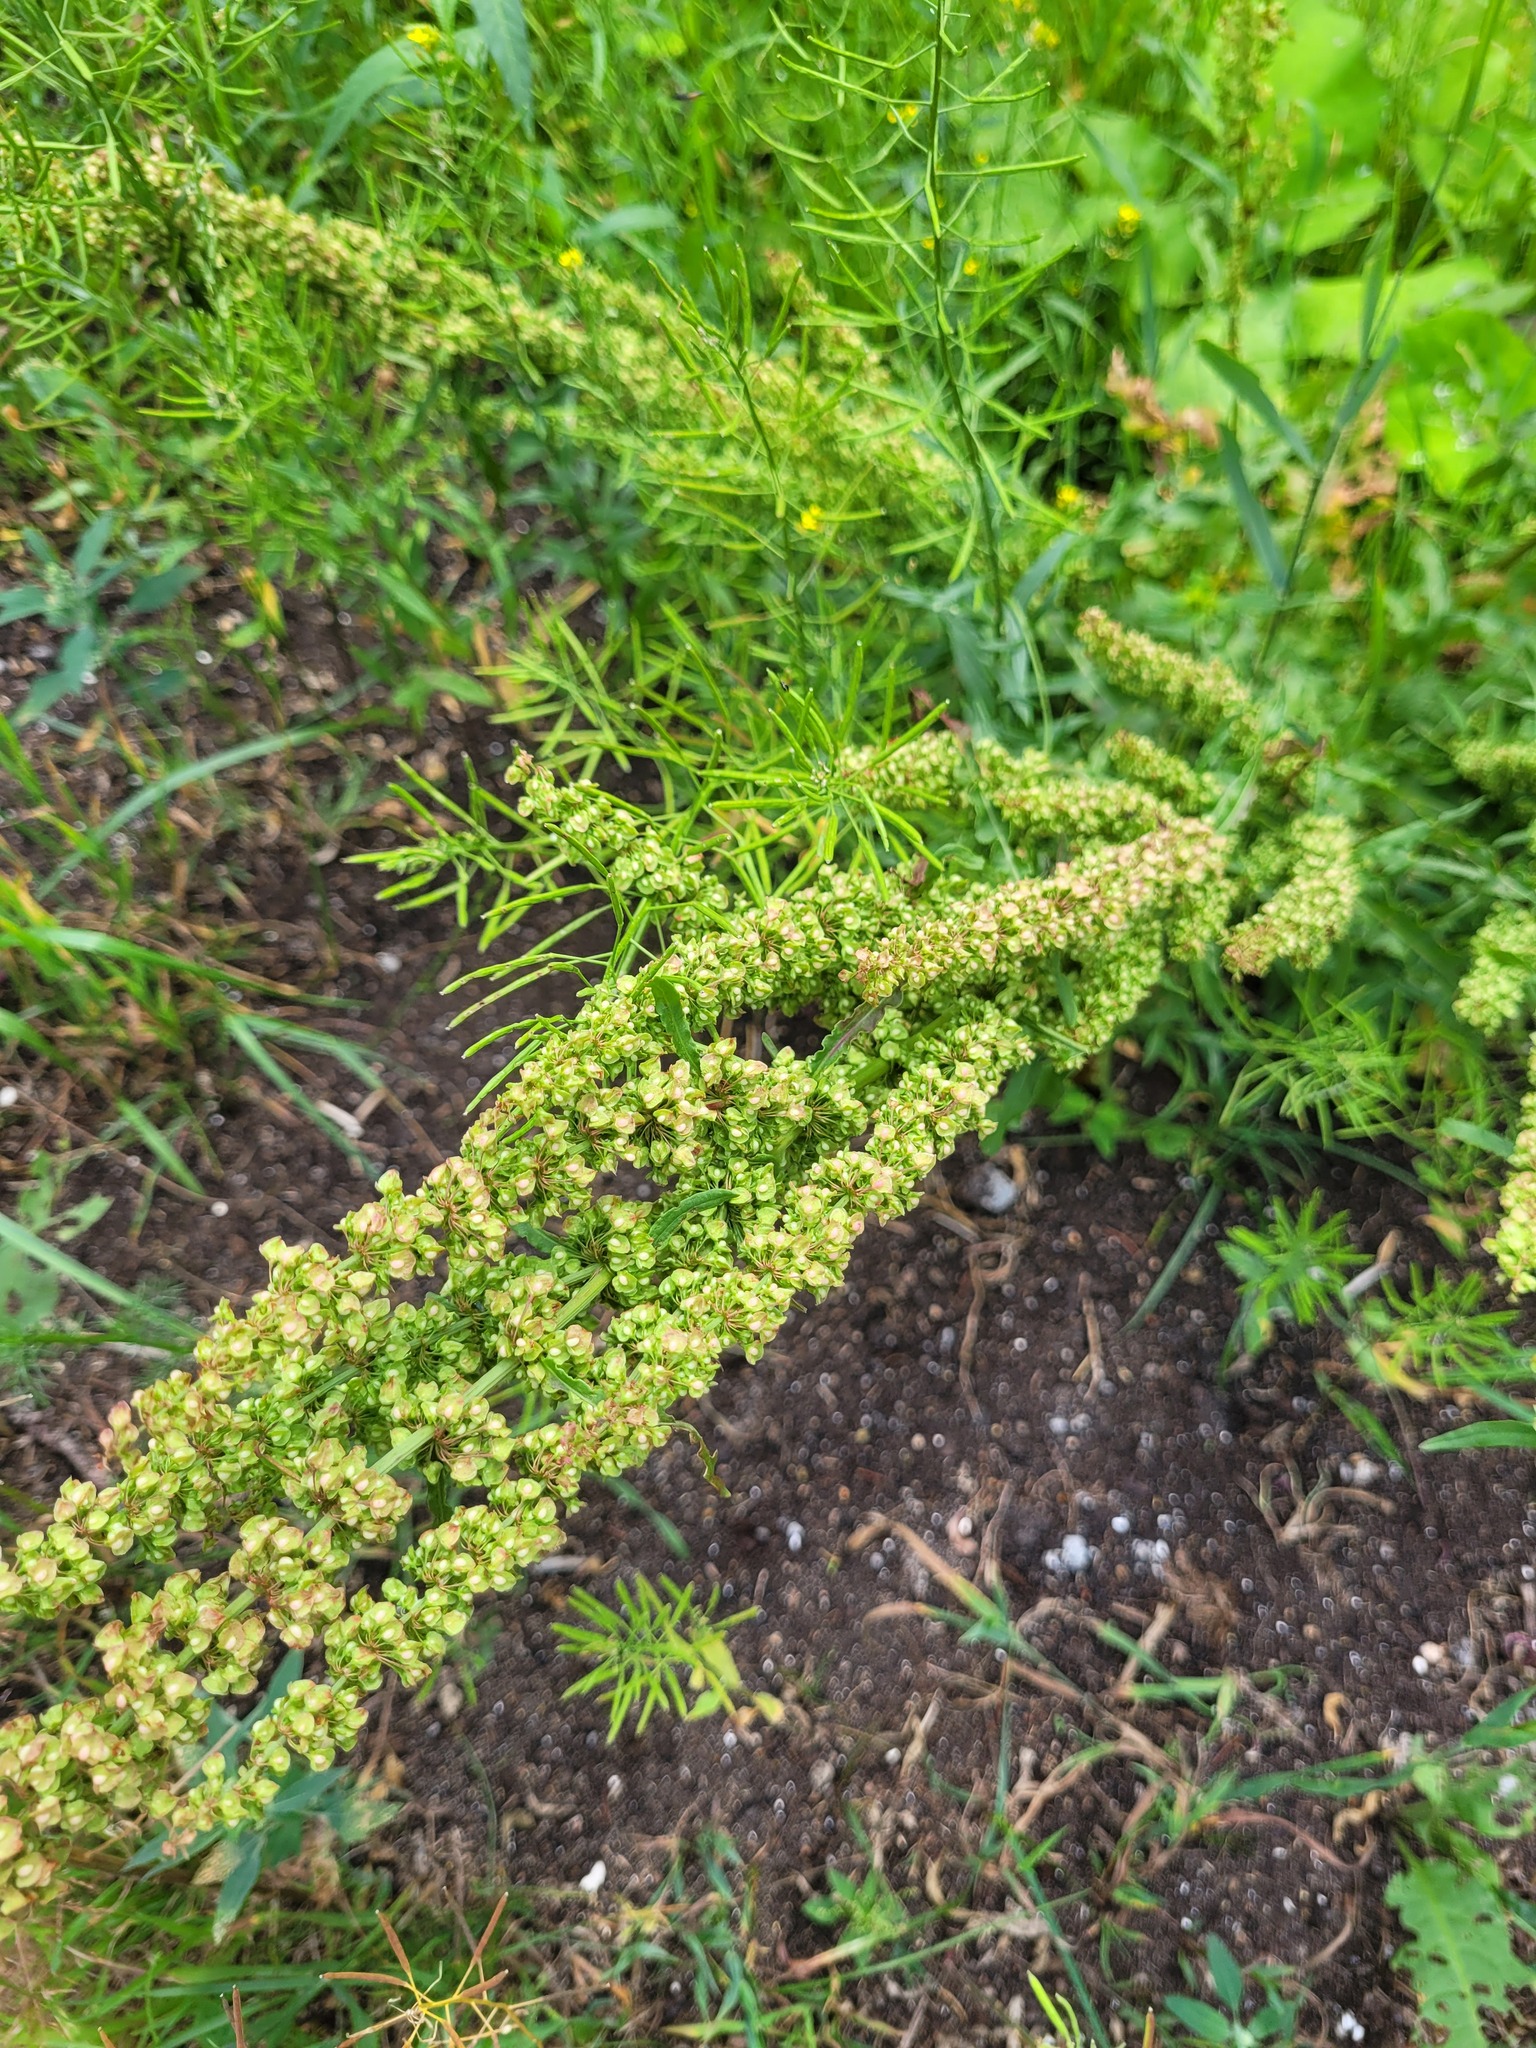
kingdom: Plantae
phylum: Tracheophyta
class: Magnoliopsida
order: Caryophyllales
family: Polygonaceae
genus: Rumex
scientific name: Rumex crispus
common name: Curled dock
